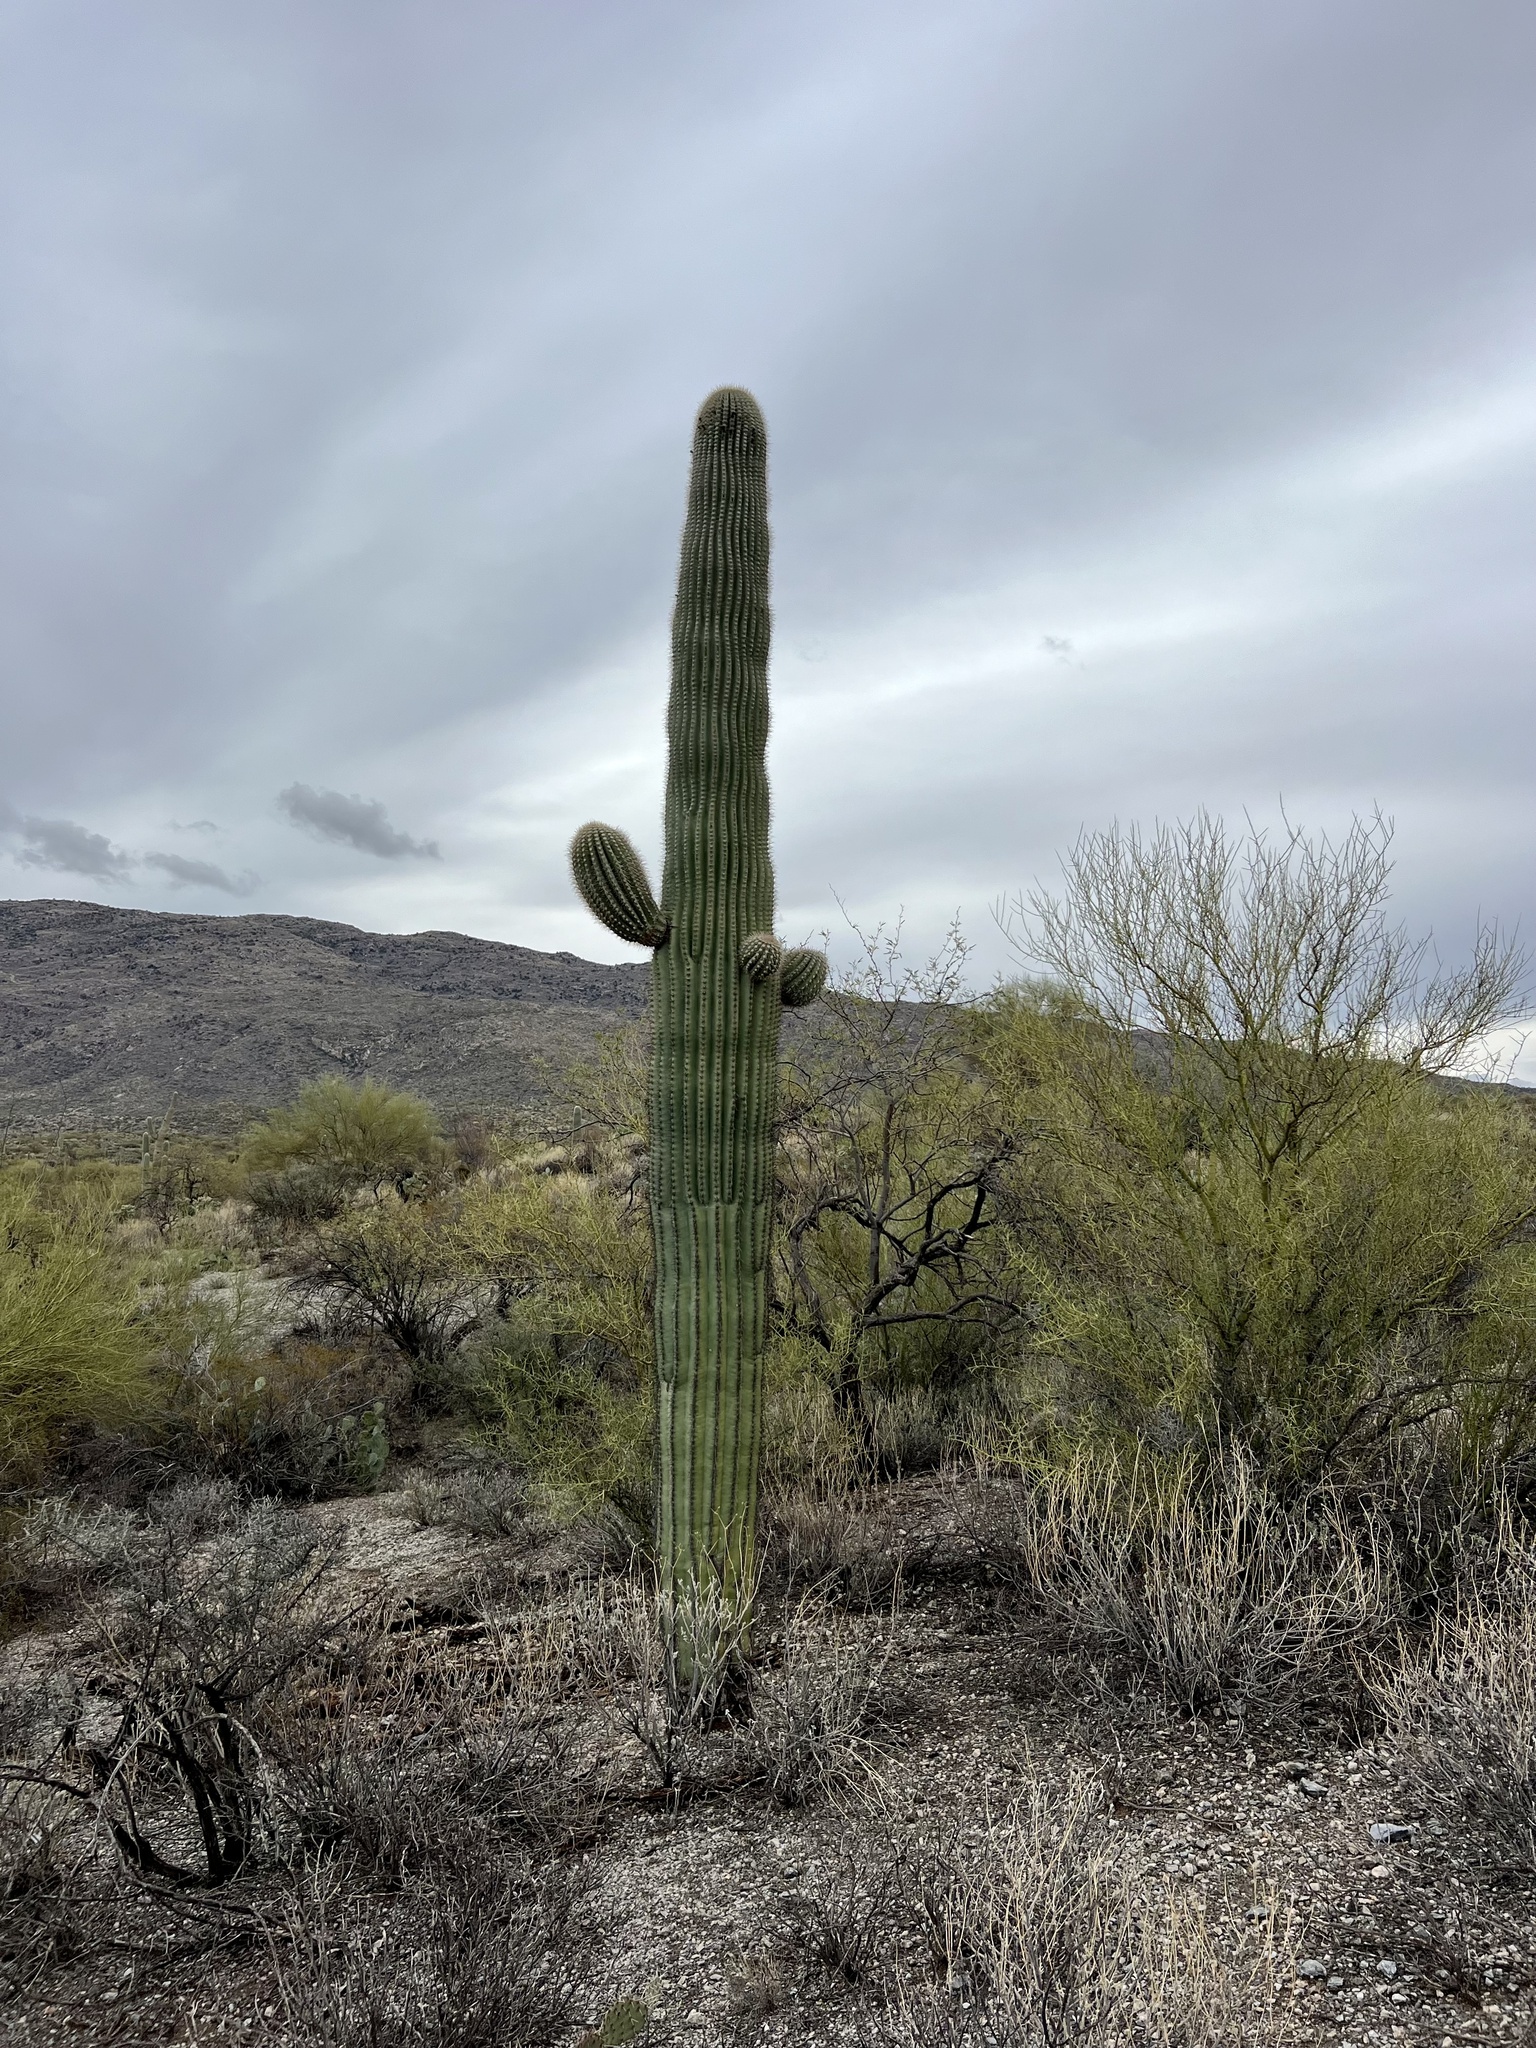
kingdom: Plantae
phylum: Tracheophyta
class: Magnoliopsida
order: Caryophyllales
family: Cactaceae
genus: Carnegiea
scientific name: Carnegiea gigantea
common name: Saguaro
